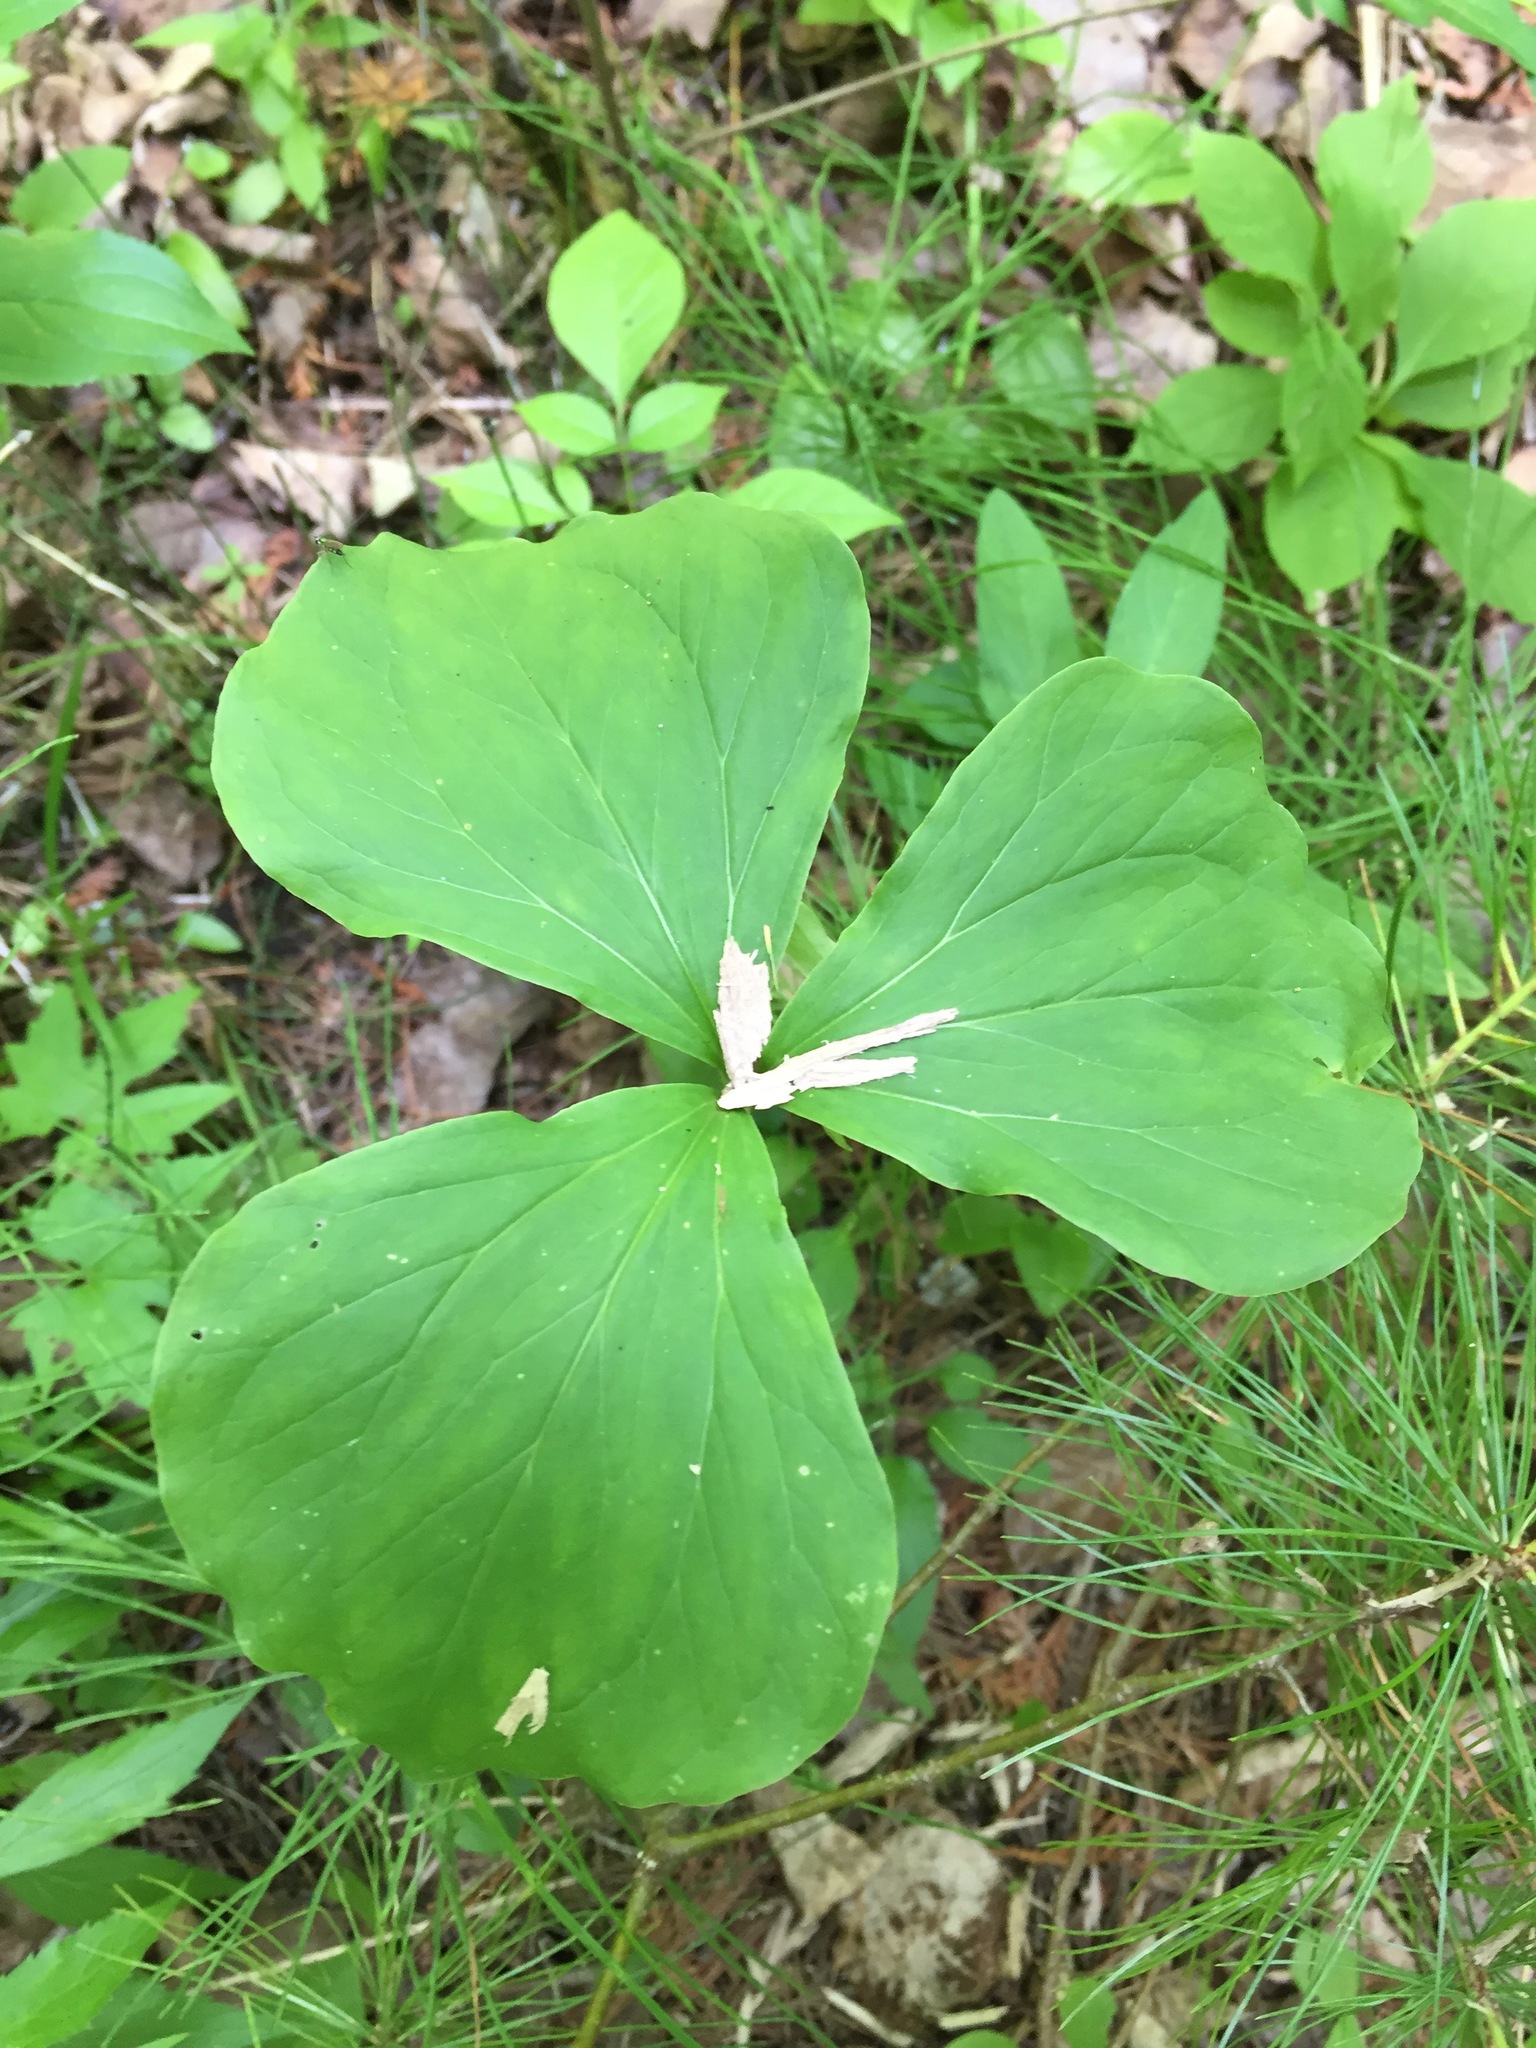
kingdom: Plantae
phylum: Tracheophyta
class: Liliopsida
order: Liliales
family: Melanthiaceae
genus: Trillium
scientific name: Trillium cernuum
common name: Nodding trillium
